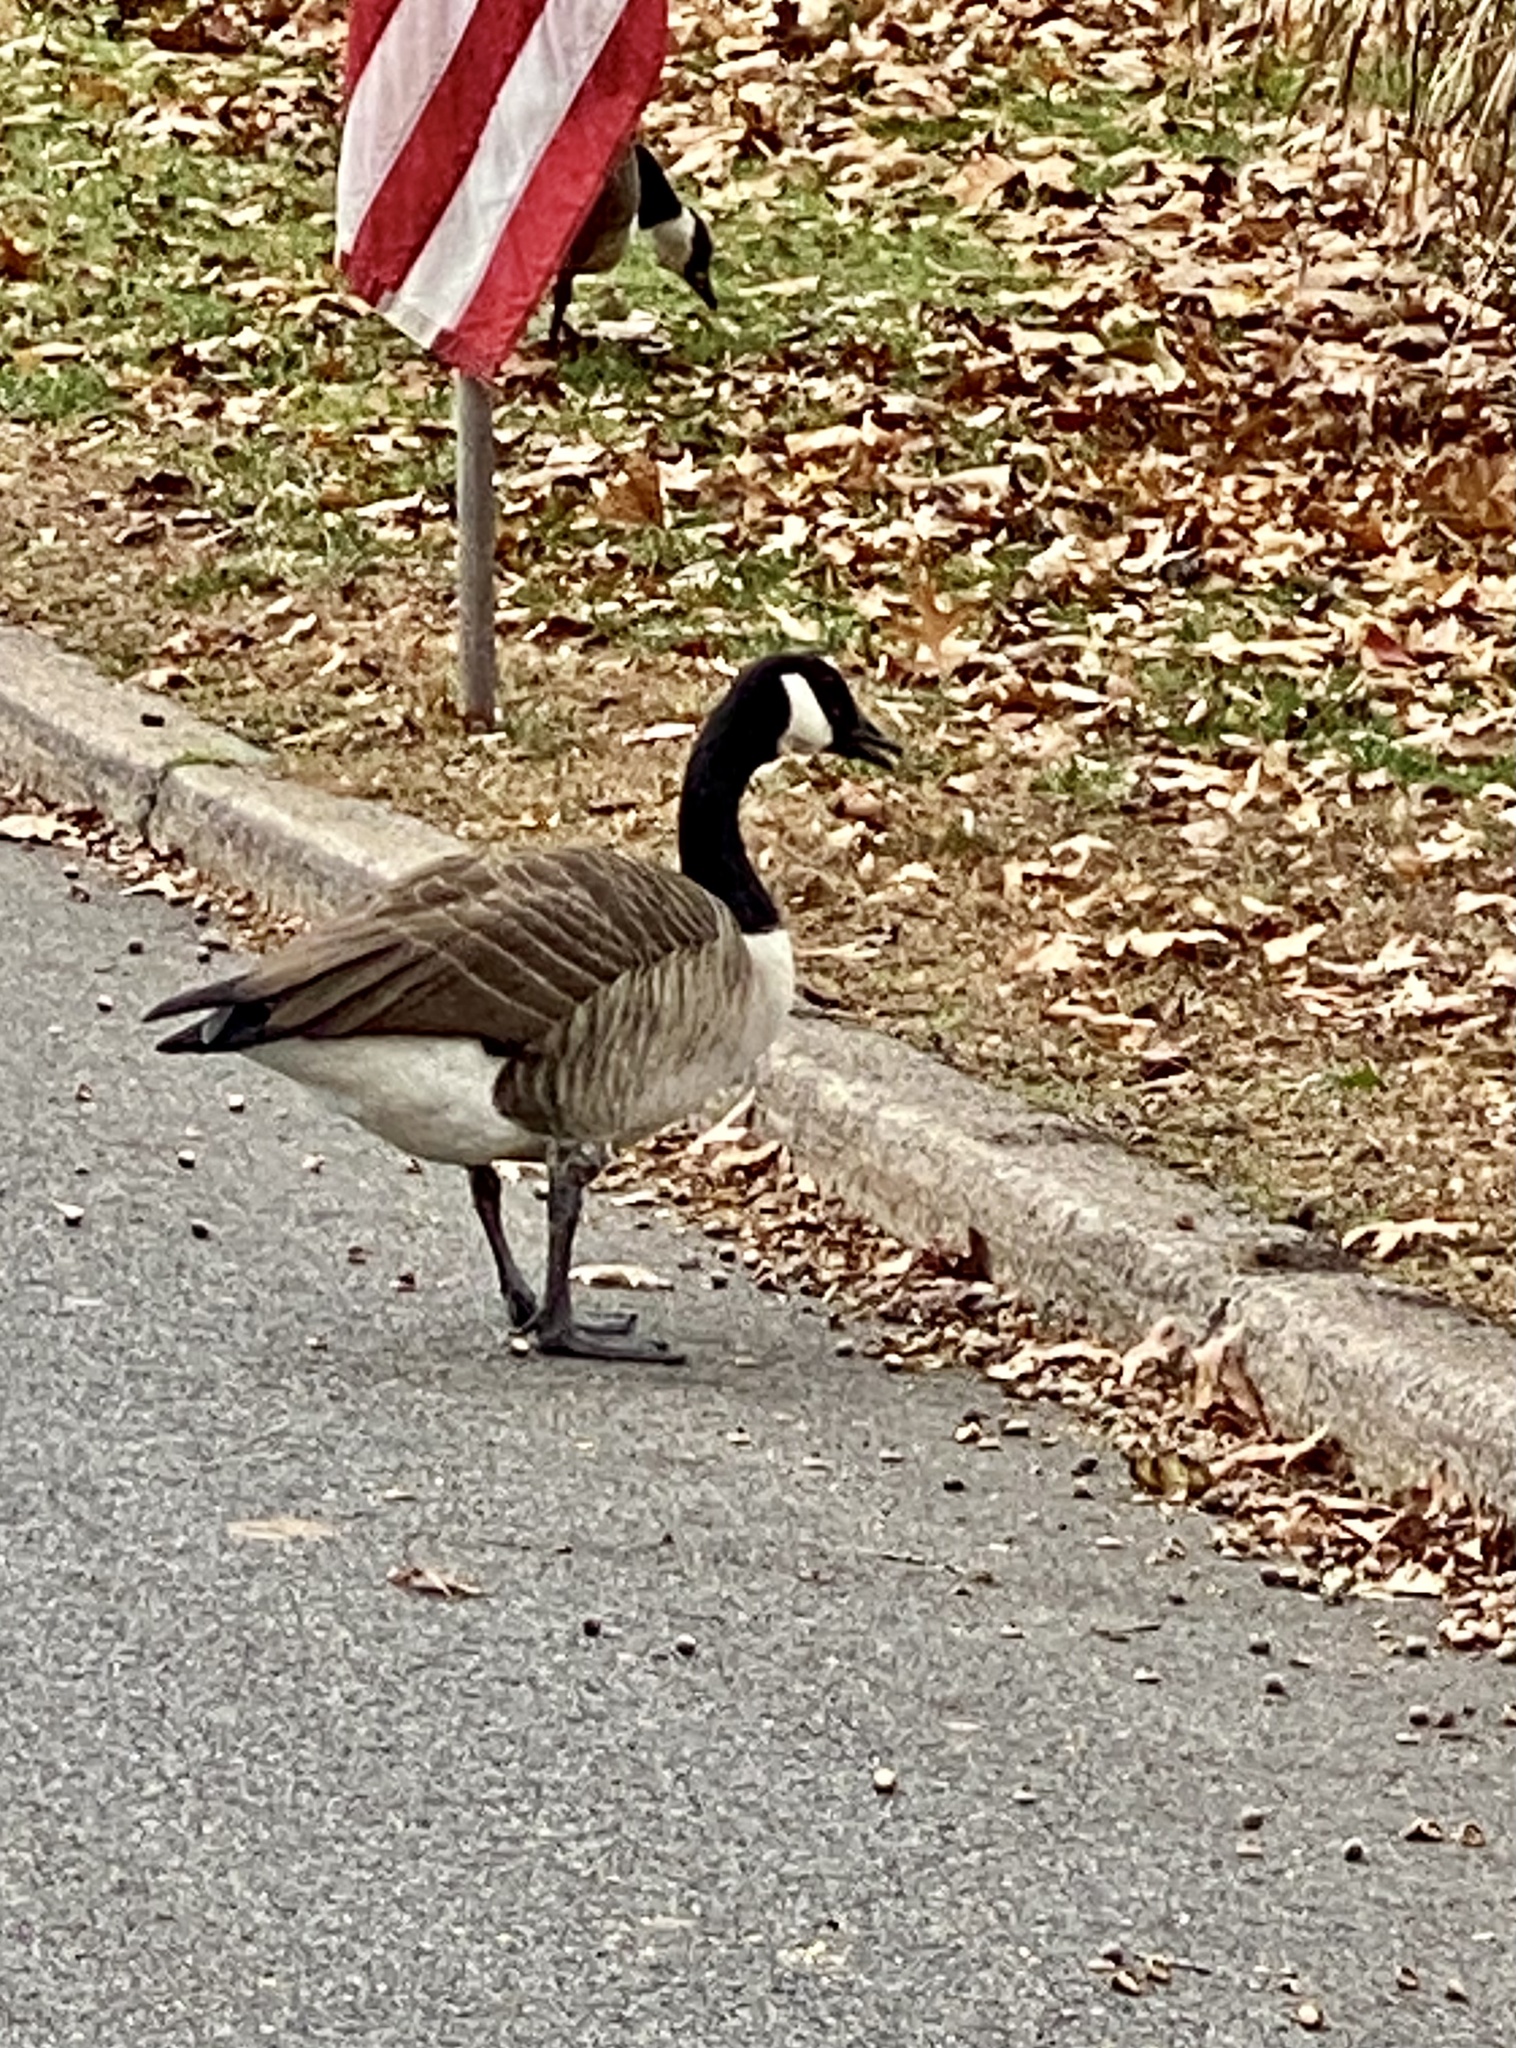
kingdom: Animalia
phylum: Chordata
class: Aves
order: Anseriformes
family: Anatidae
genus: Branta
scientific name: Branta canadensis
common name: Canada goose
